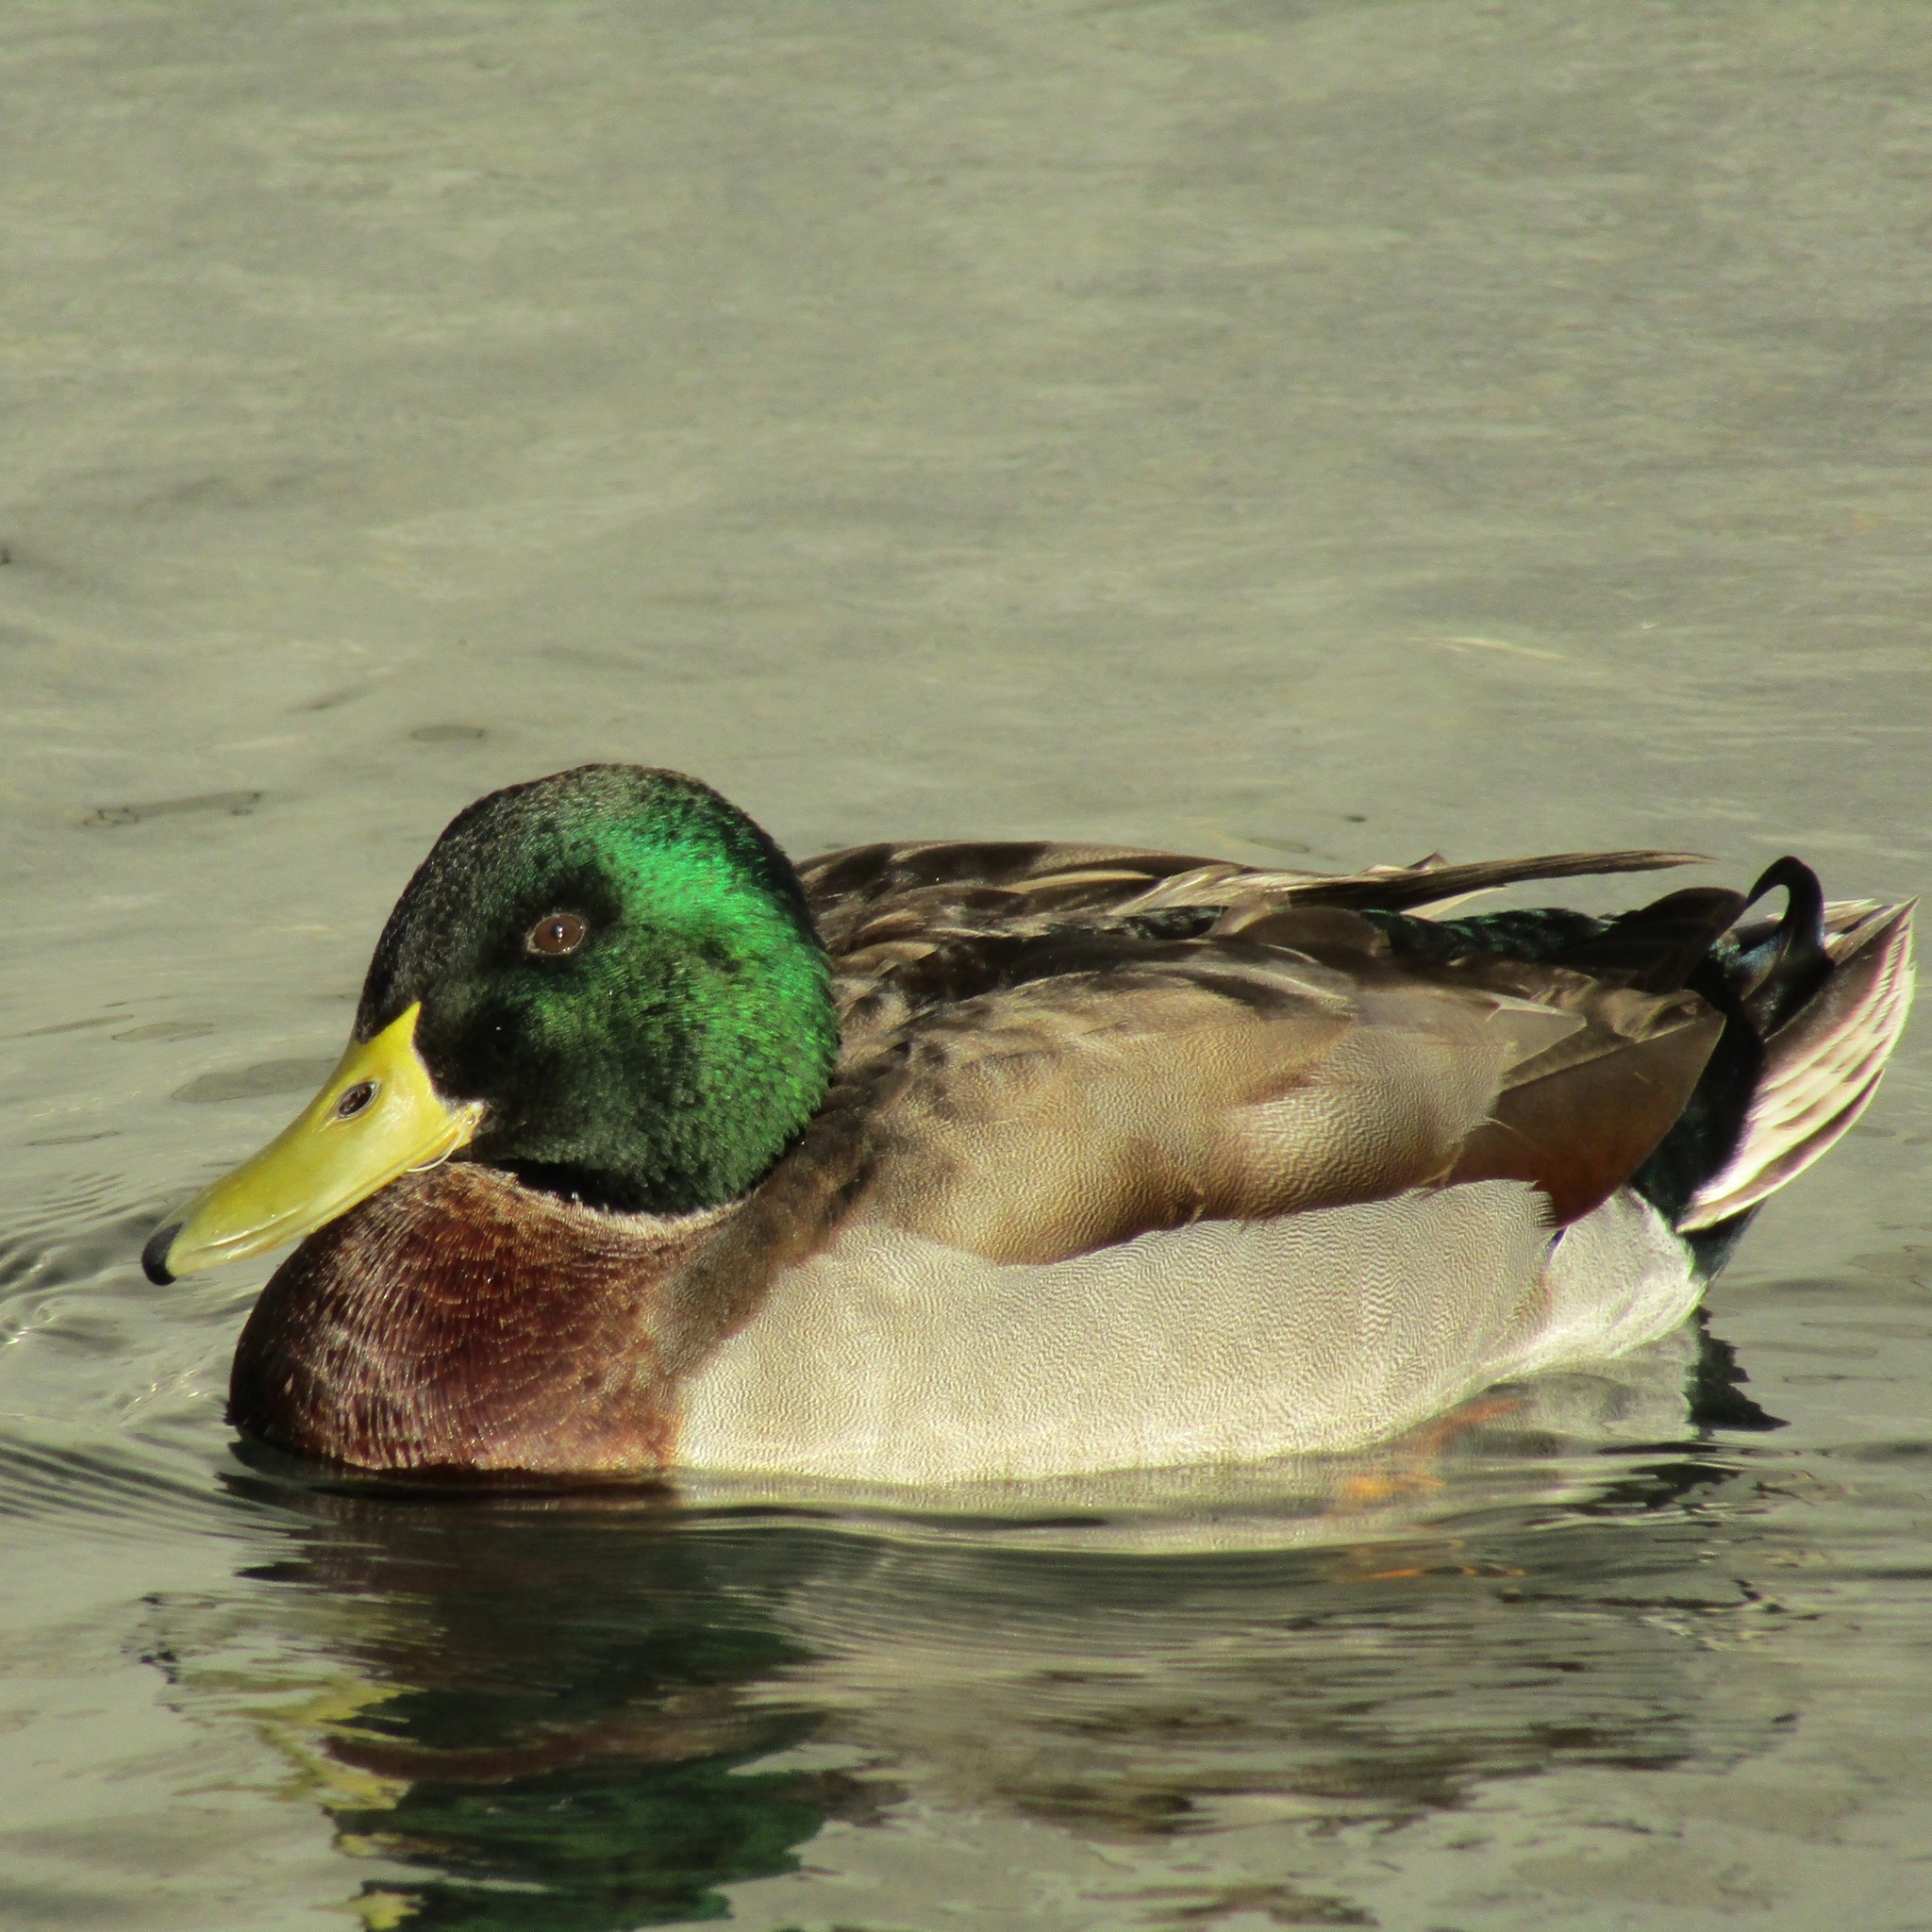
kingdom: Animalia
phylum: Chordata
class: Aves
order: Anseriformes
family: Anatidae
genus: Anas
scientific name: Anas platyrhynchos
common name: Mallard
